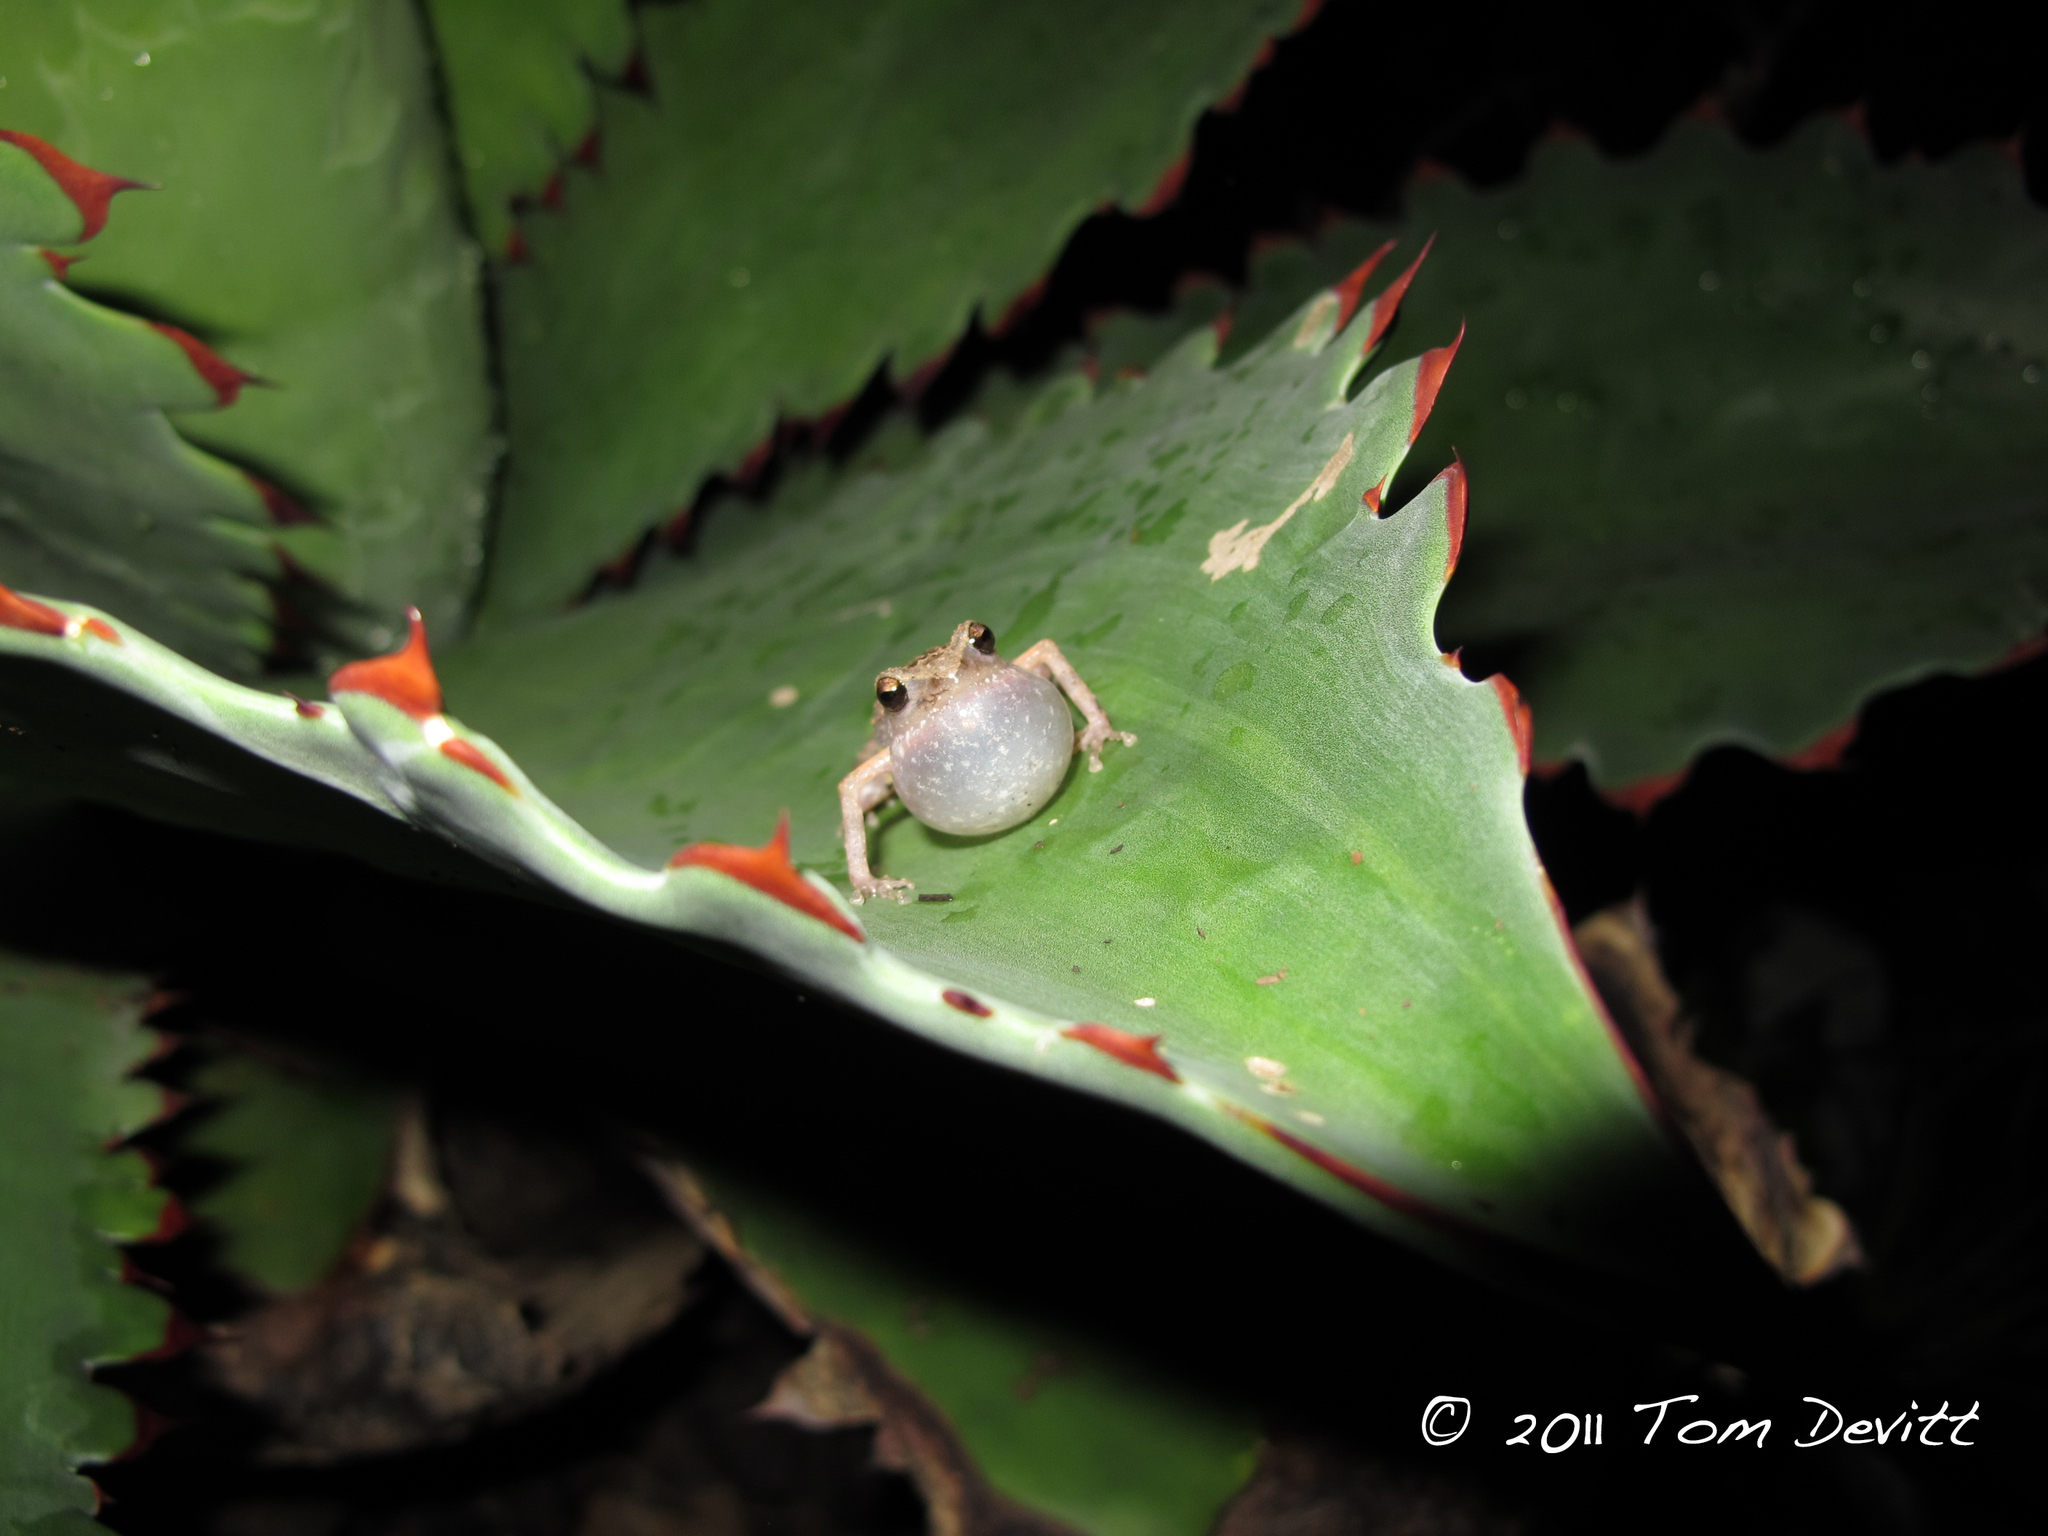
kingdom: Animalia
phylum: Chordata
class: Amphibia
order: Anura
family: Eleutherodactylidae
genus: Eleutherodactylus
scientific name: Eleutherodactylus dilatus
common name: Guerreran peeping frog
